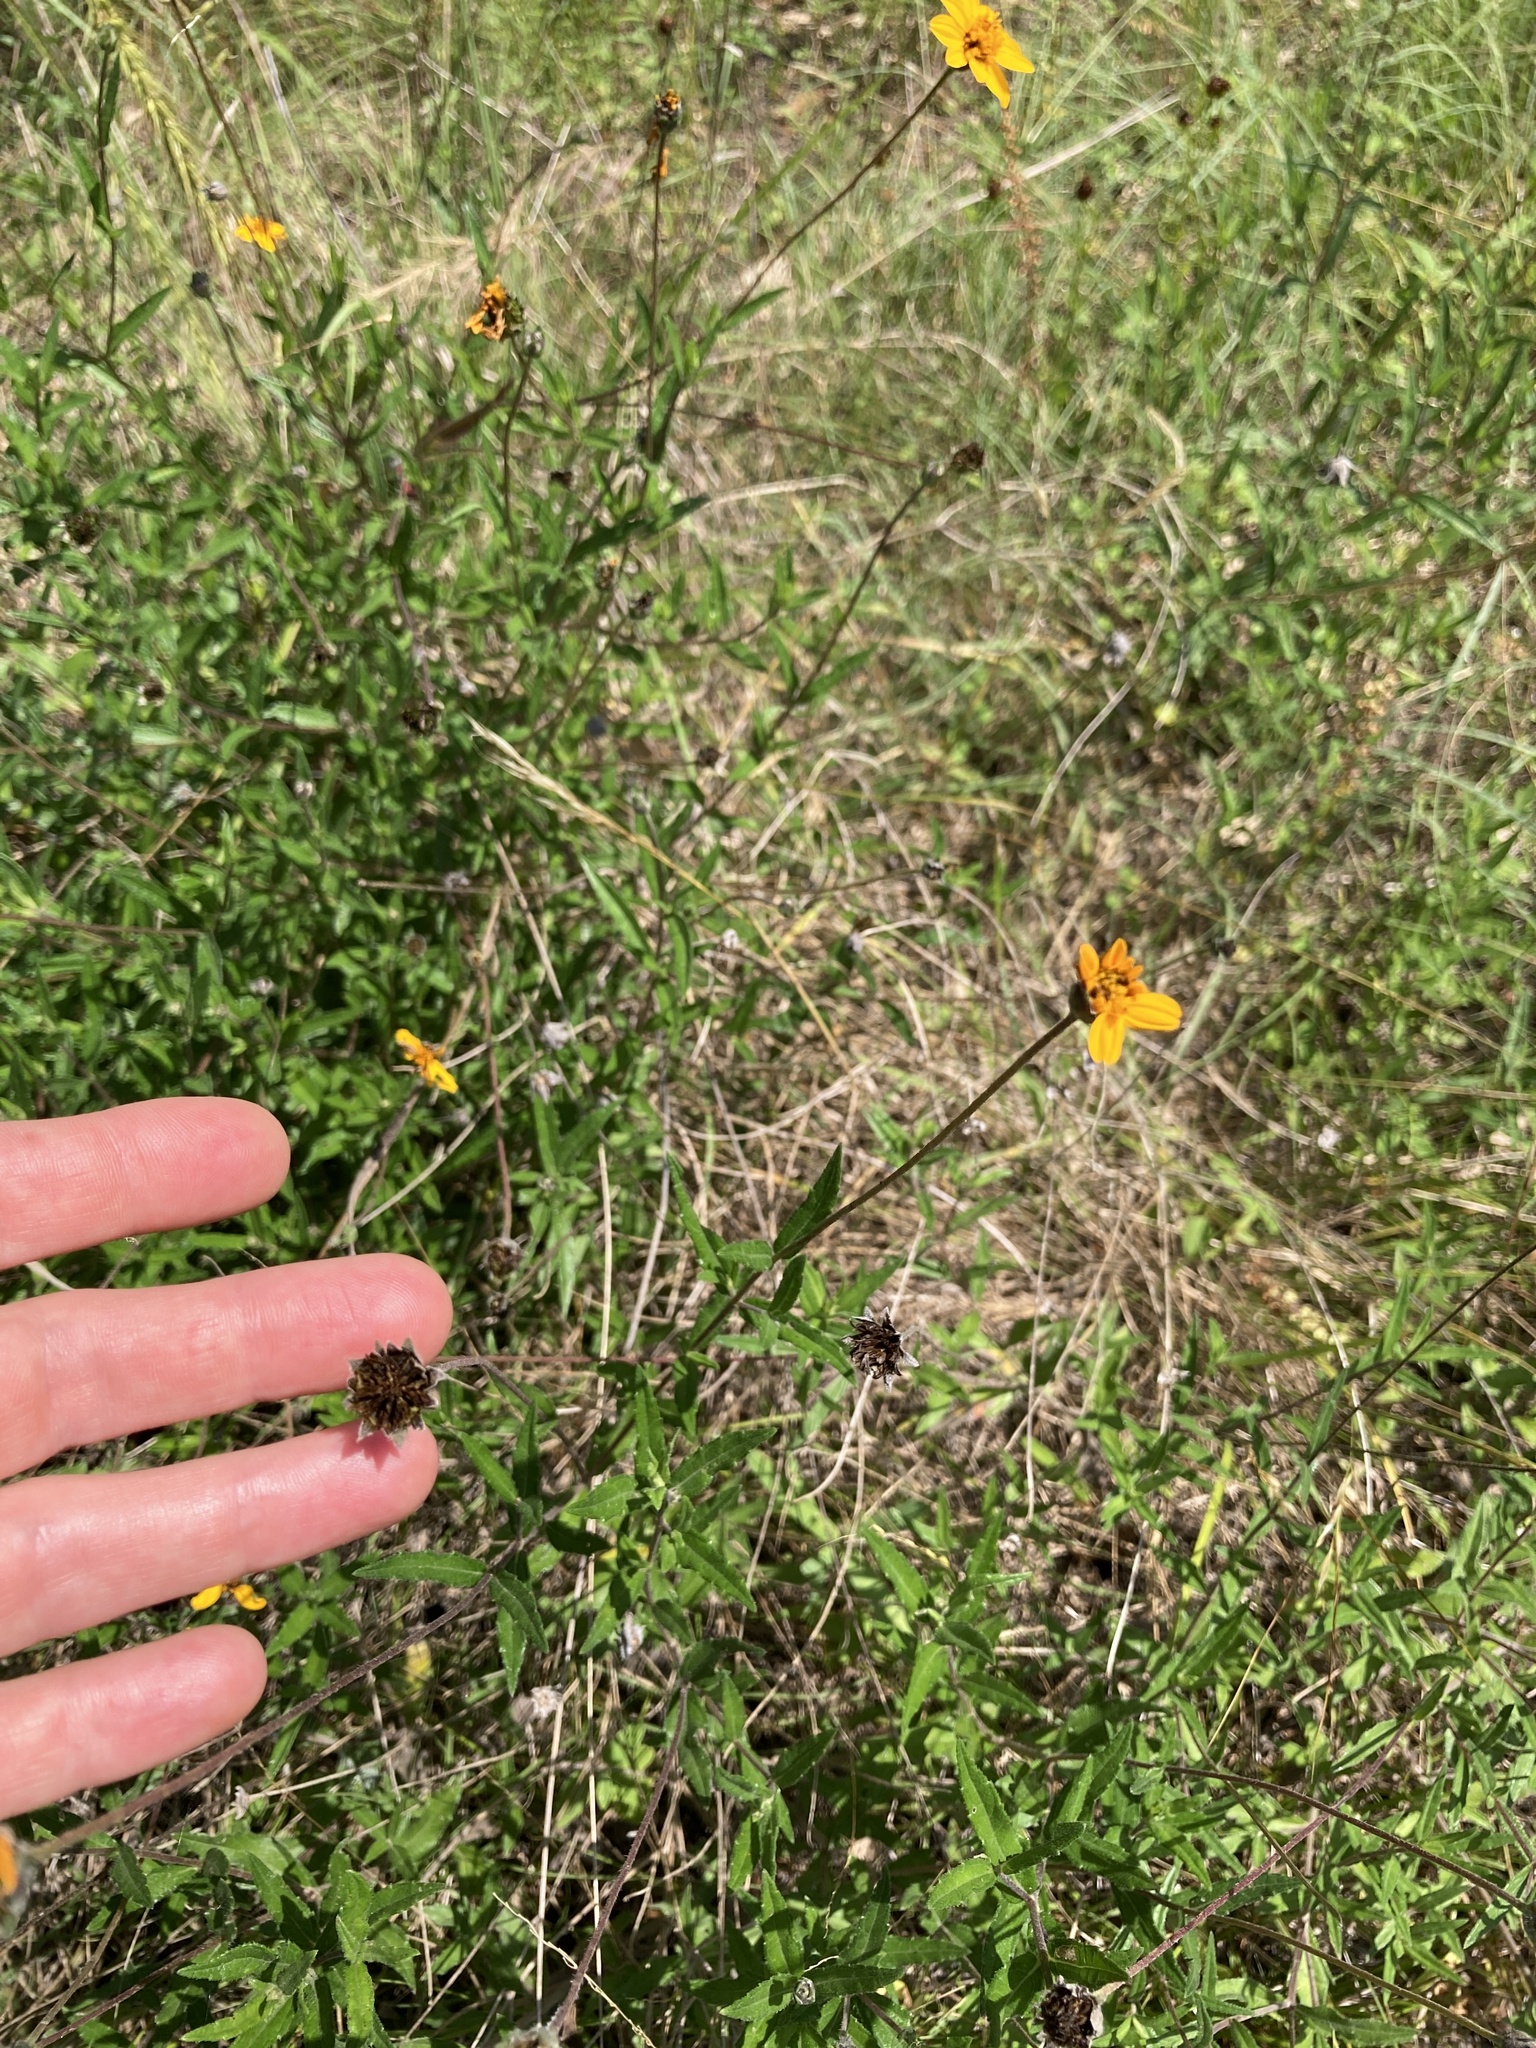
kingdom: Plantae
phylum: Tracheophyta
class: Magnoliopsida
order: Asterales
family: Asteraceae
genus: Wedelia
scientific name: Wedelia acapulcensis
